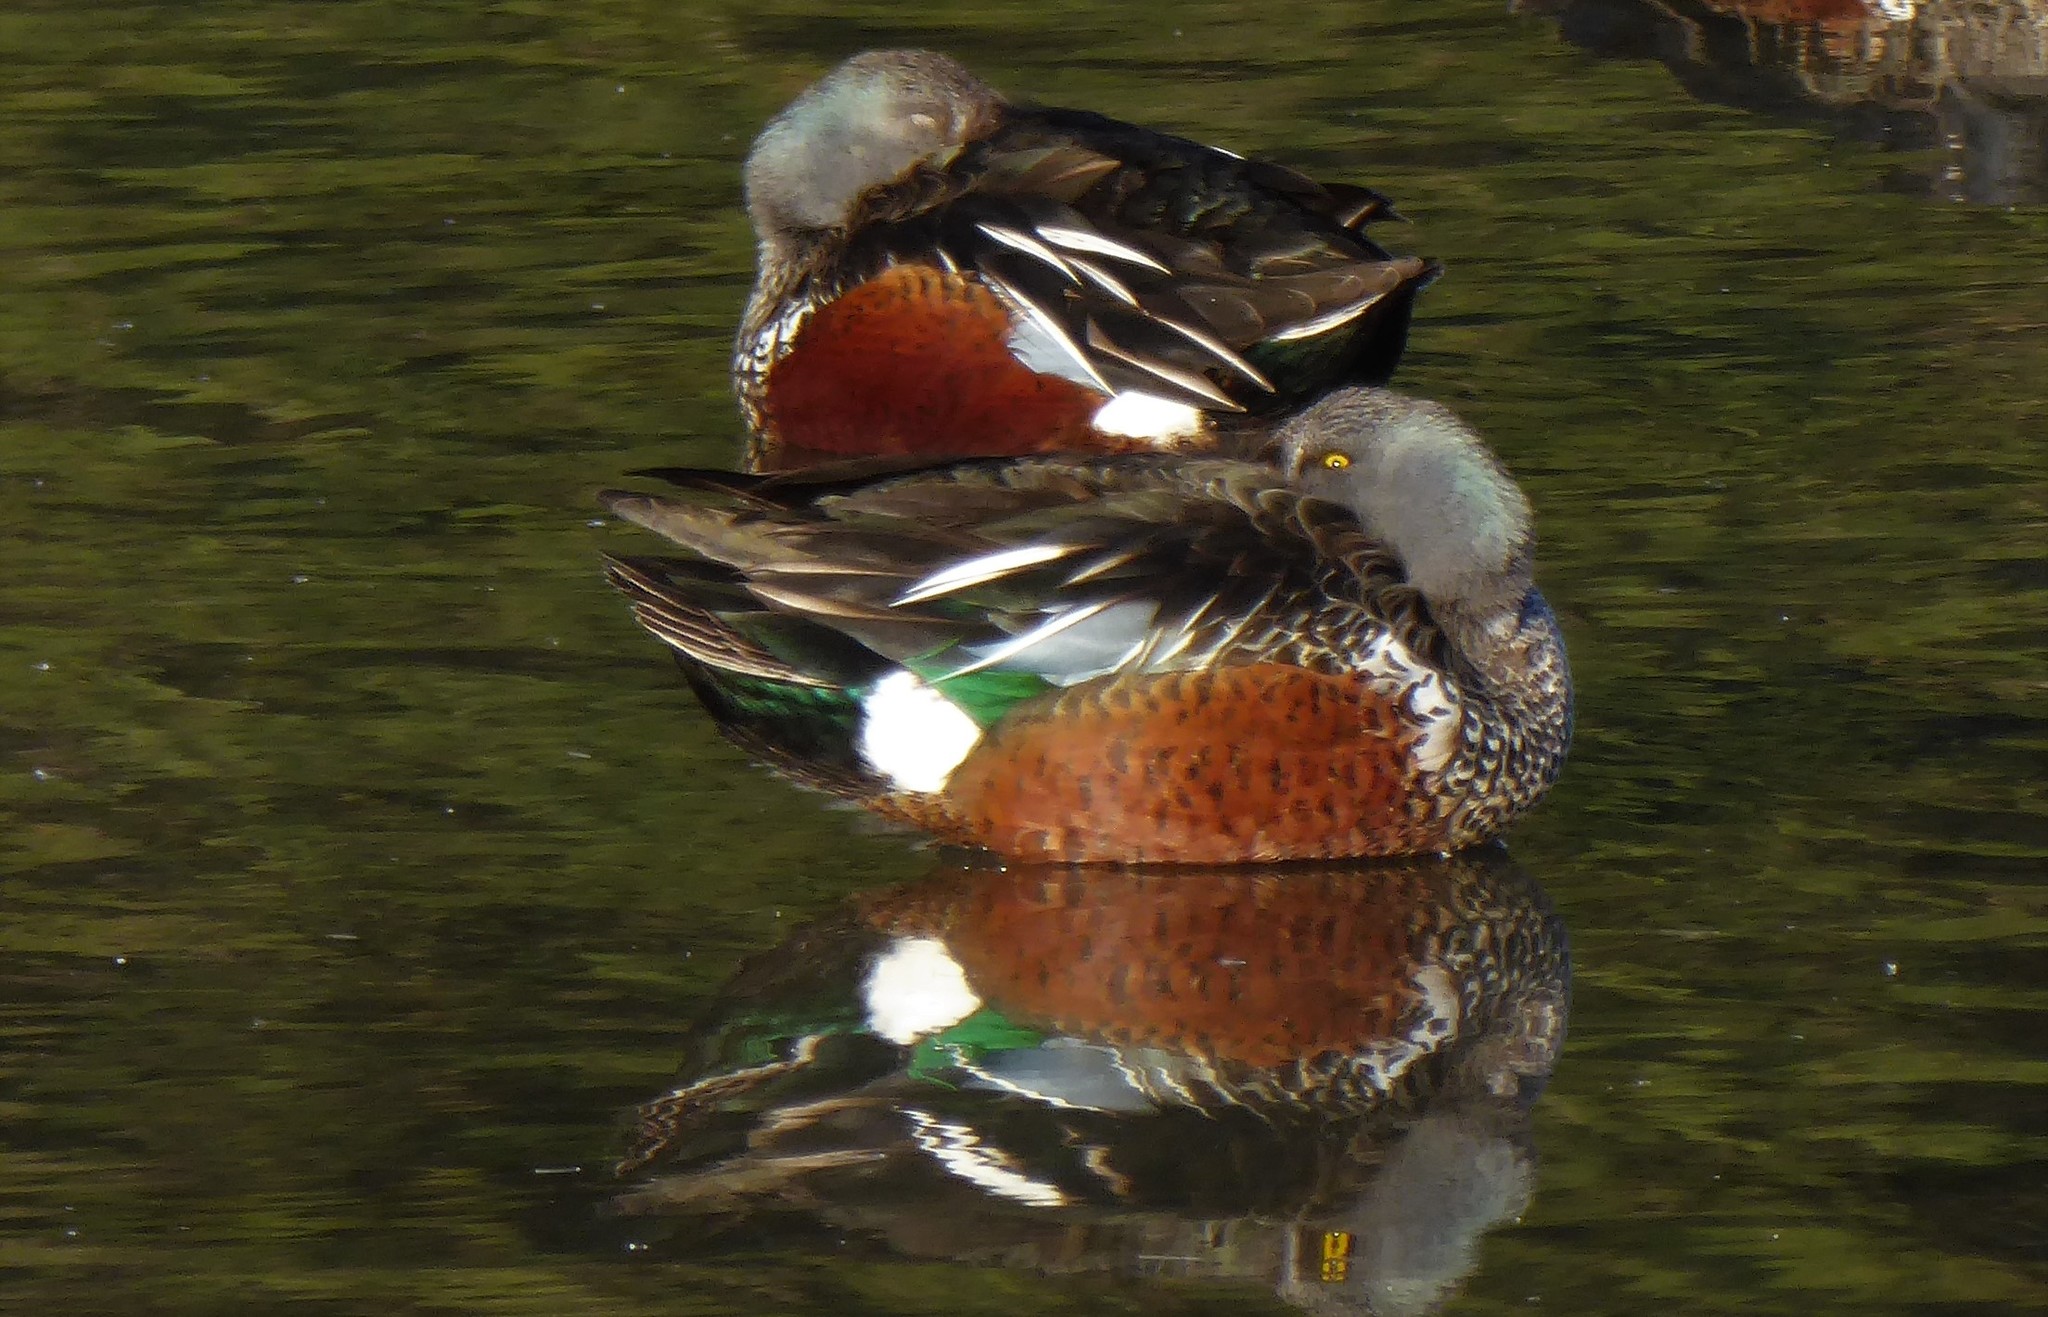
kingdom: Animalia
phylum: Chordata
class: Aves
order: Anseriformes
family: Anatidae
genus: Spatula
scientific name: Spatula rhynchotis
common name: Australian shoveler
